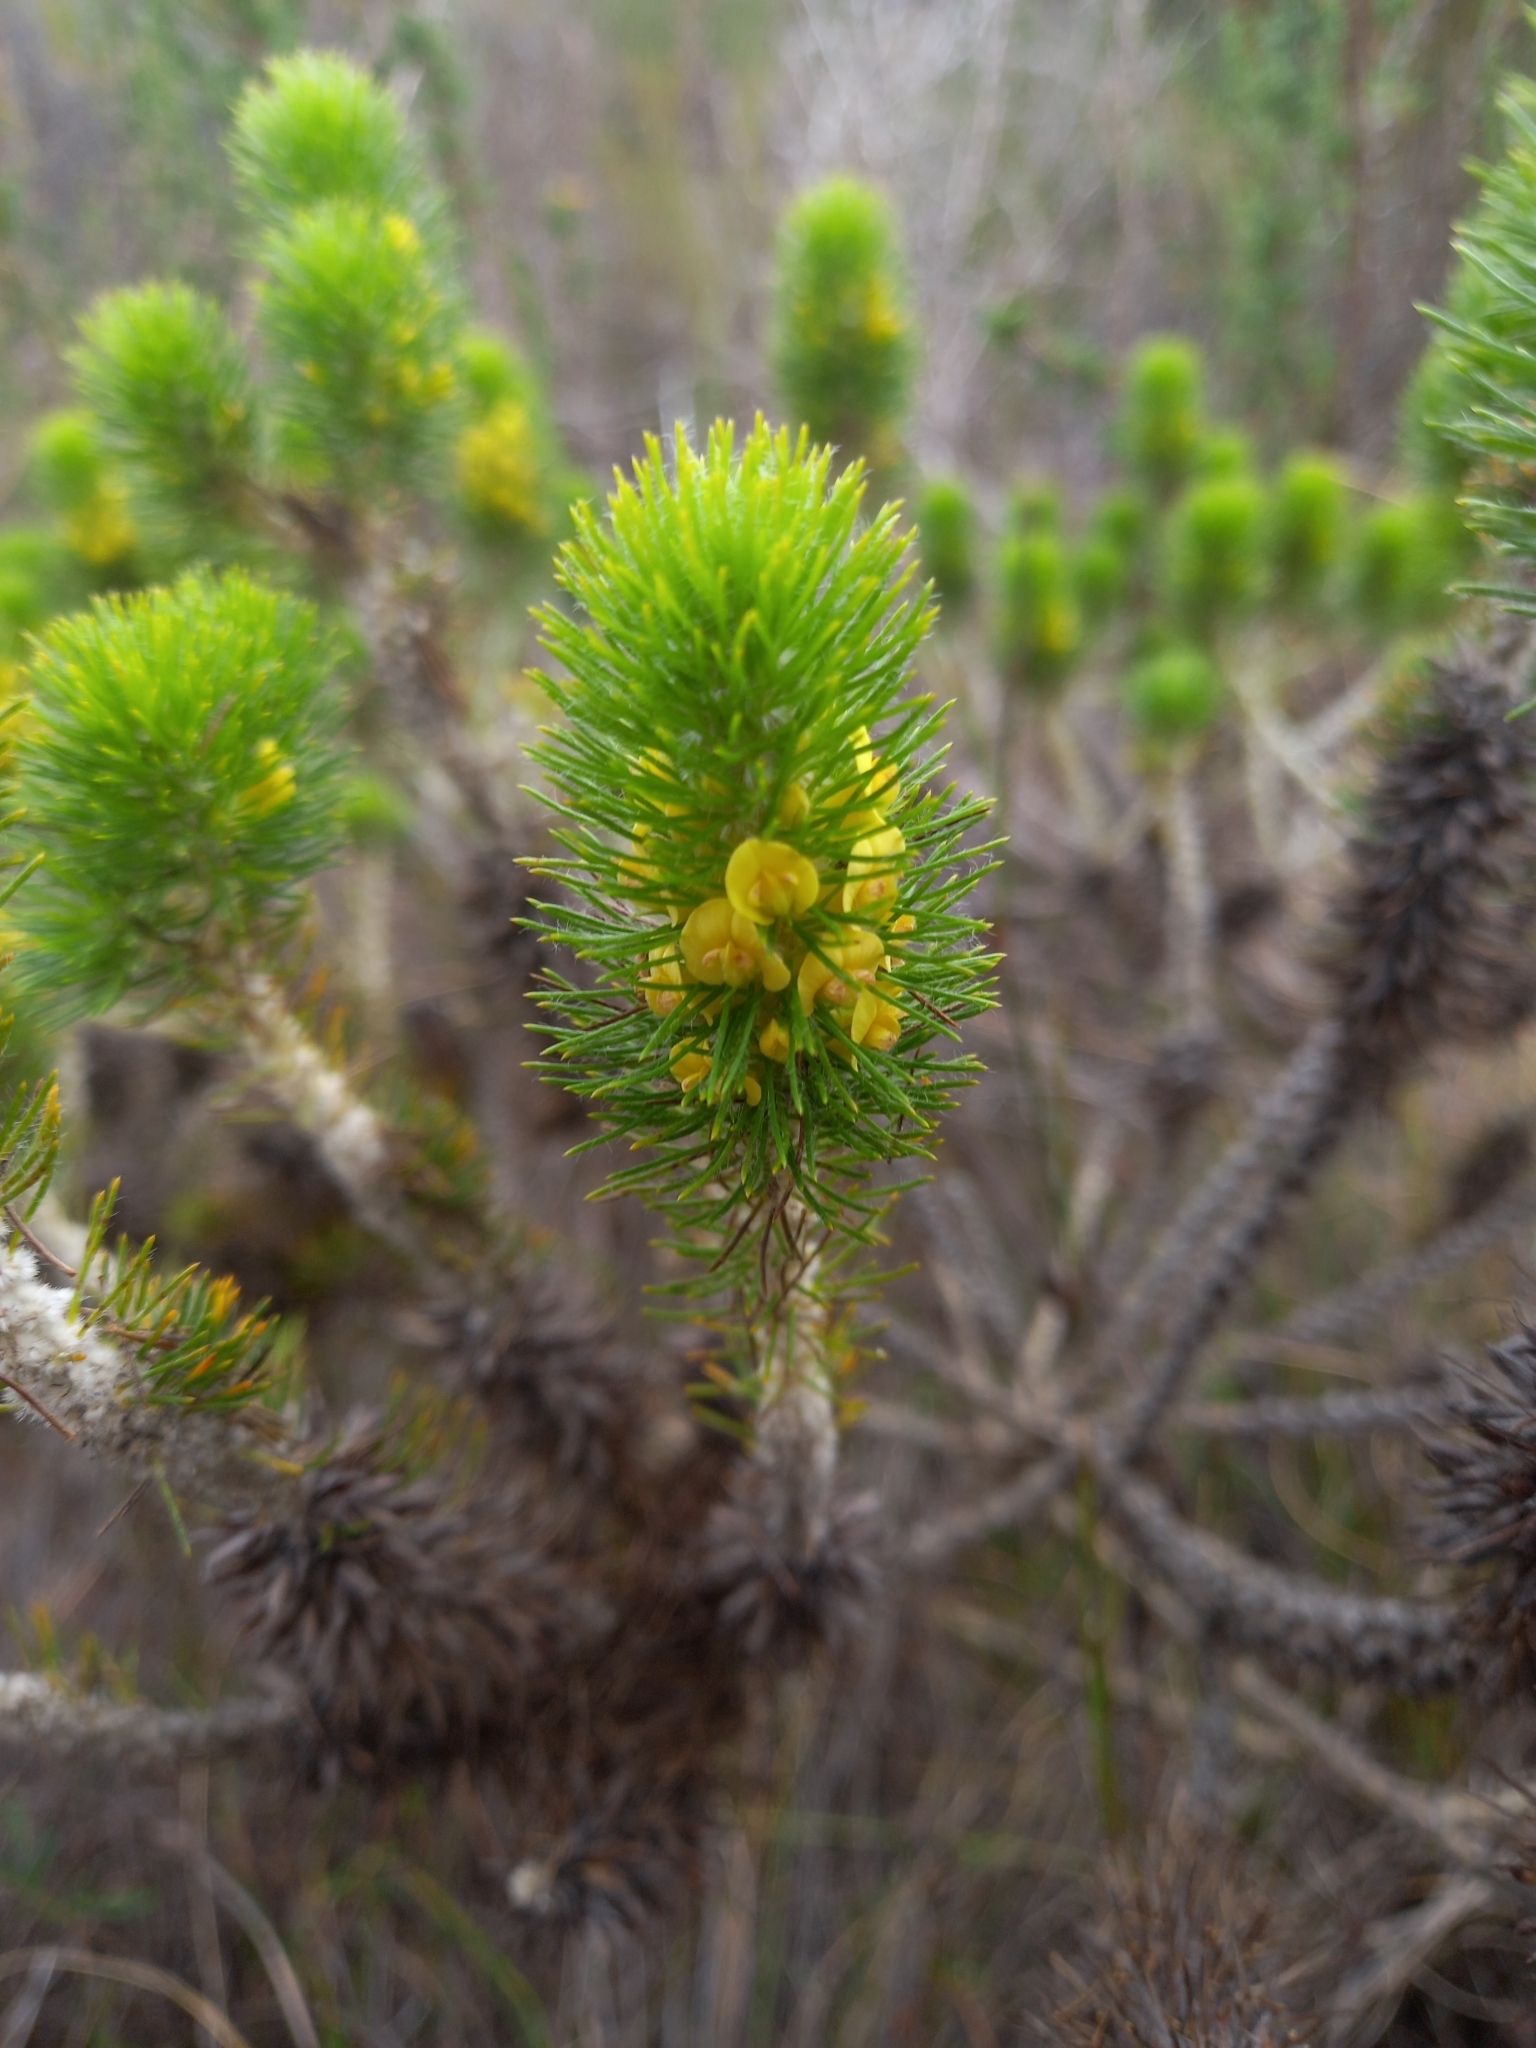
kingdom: Plantae
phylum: Tracheophyta
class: Magnoliopsida
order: Fabales
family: Fabaceae
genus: Aspalathus
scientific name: Aspalathus alopecurus
